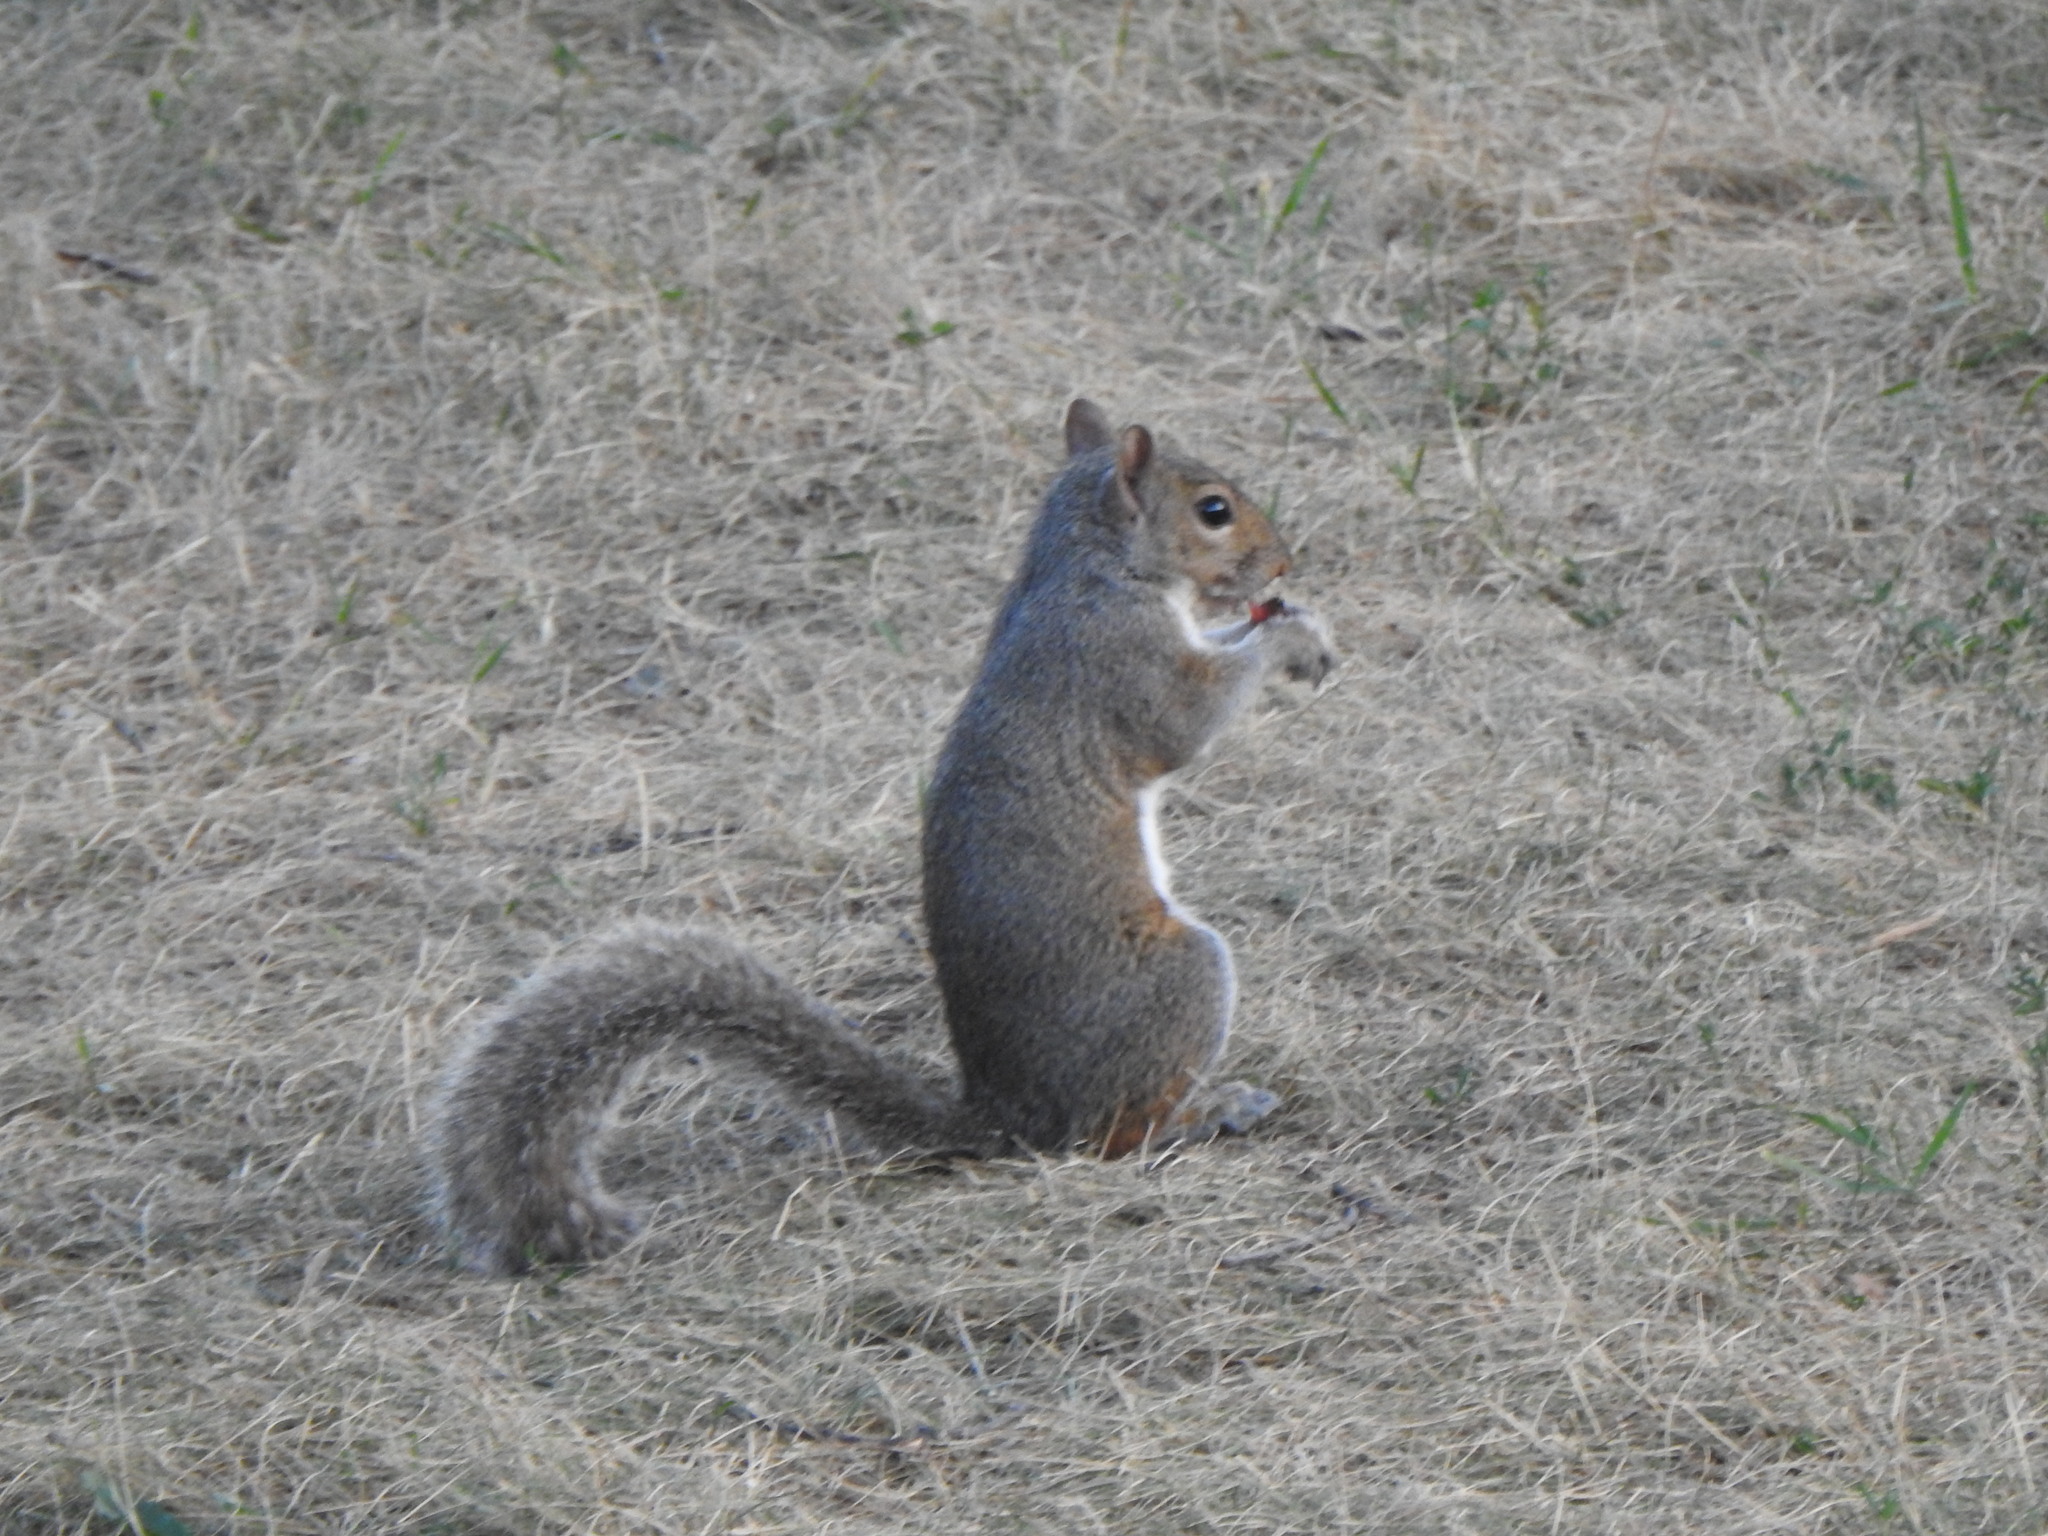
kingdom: Animalia
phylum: Chordata
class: Mammalia
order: Rodentia
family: Sciuridae
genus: Sciurus
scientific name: Sciurus carolinensis
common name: Eastern gray squirrel
